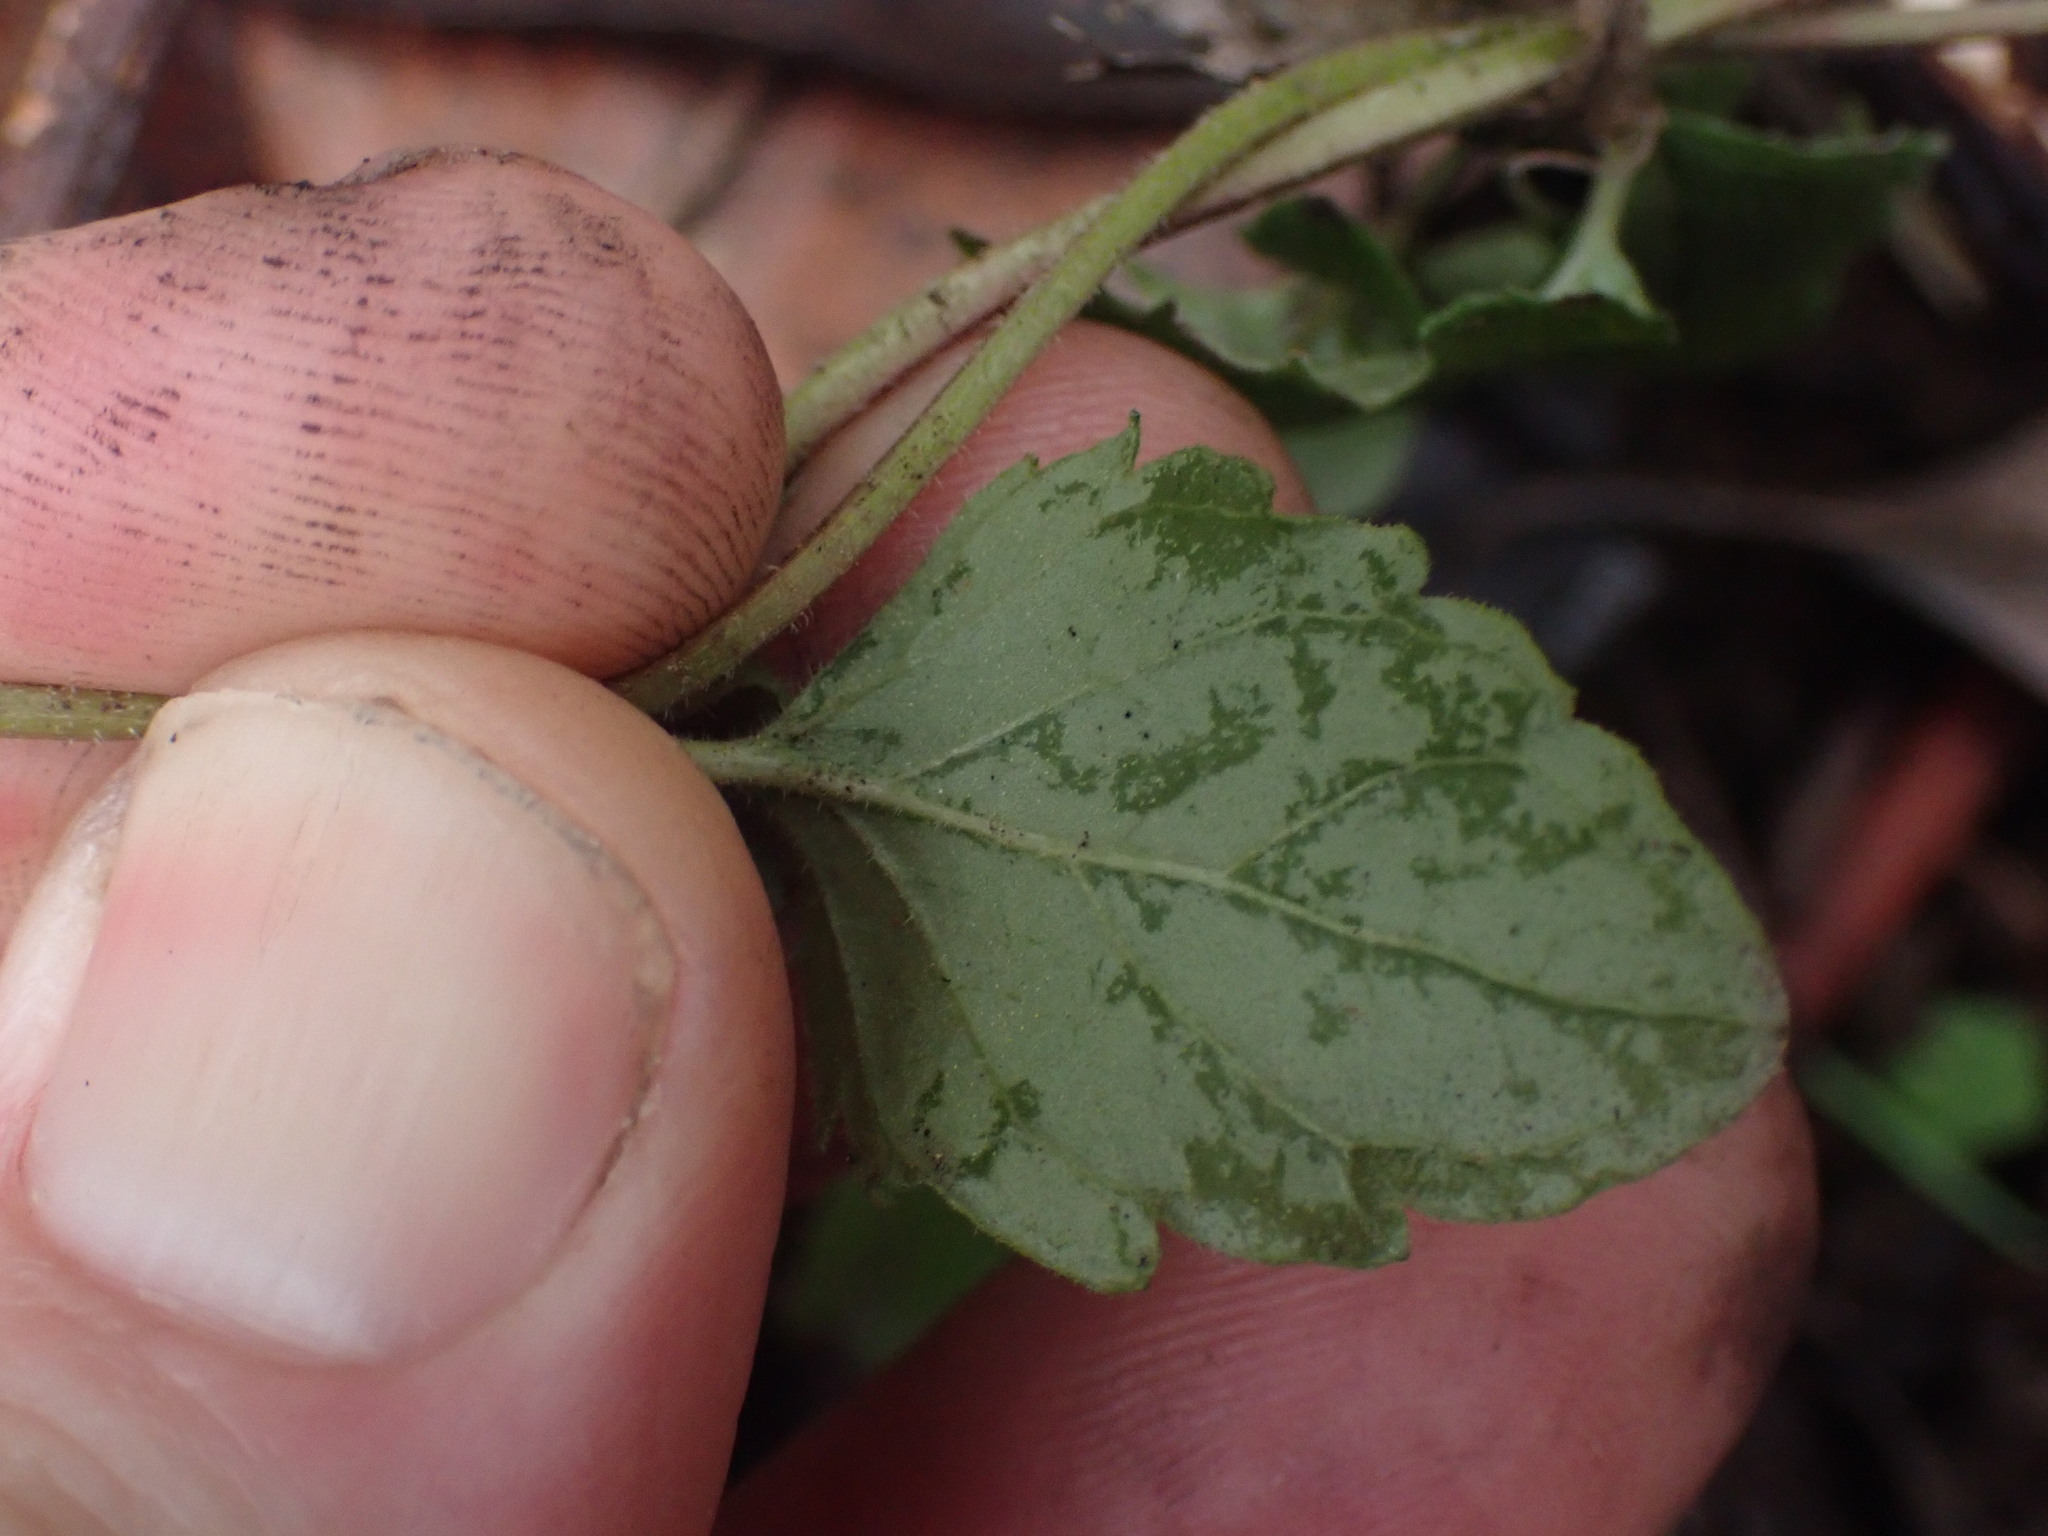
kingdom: Plantae
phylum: Tracheophyta
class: Magnoliopsida
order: Lamiales
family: Lamiaceae
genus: Micromeria
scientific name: Micromeria douglasii
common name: Yerba buena
